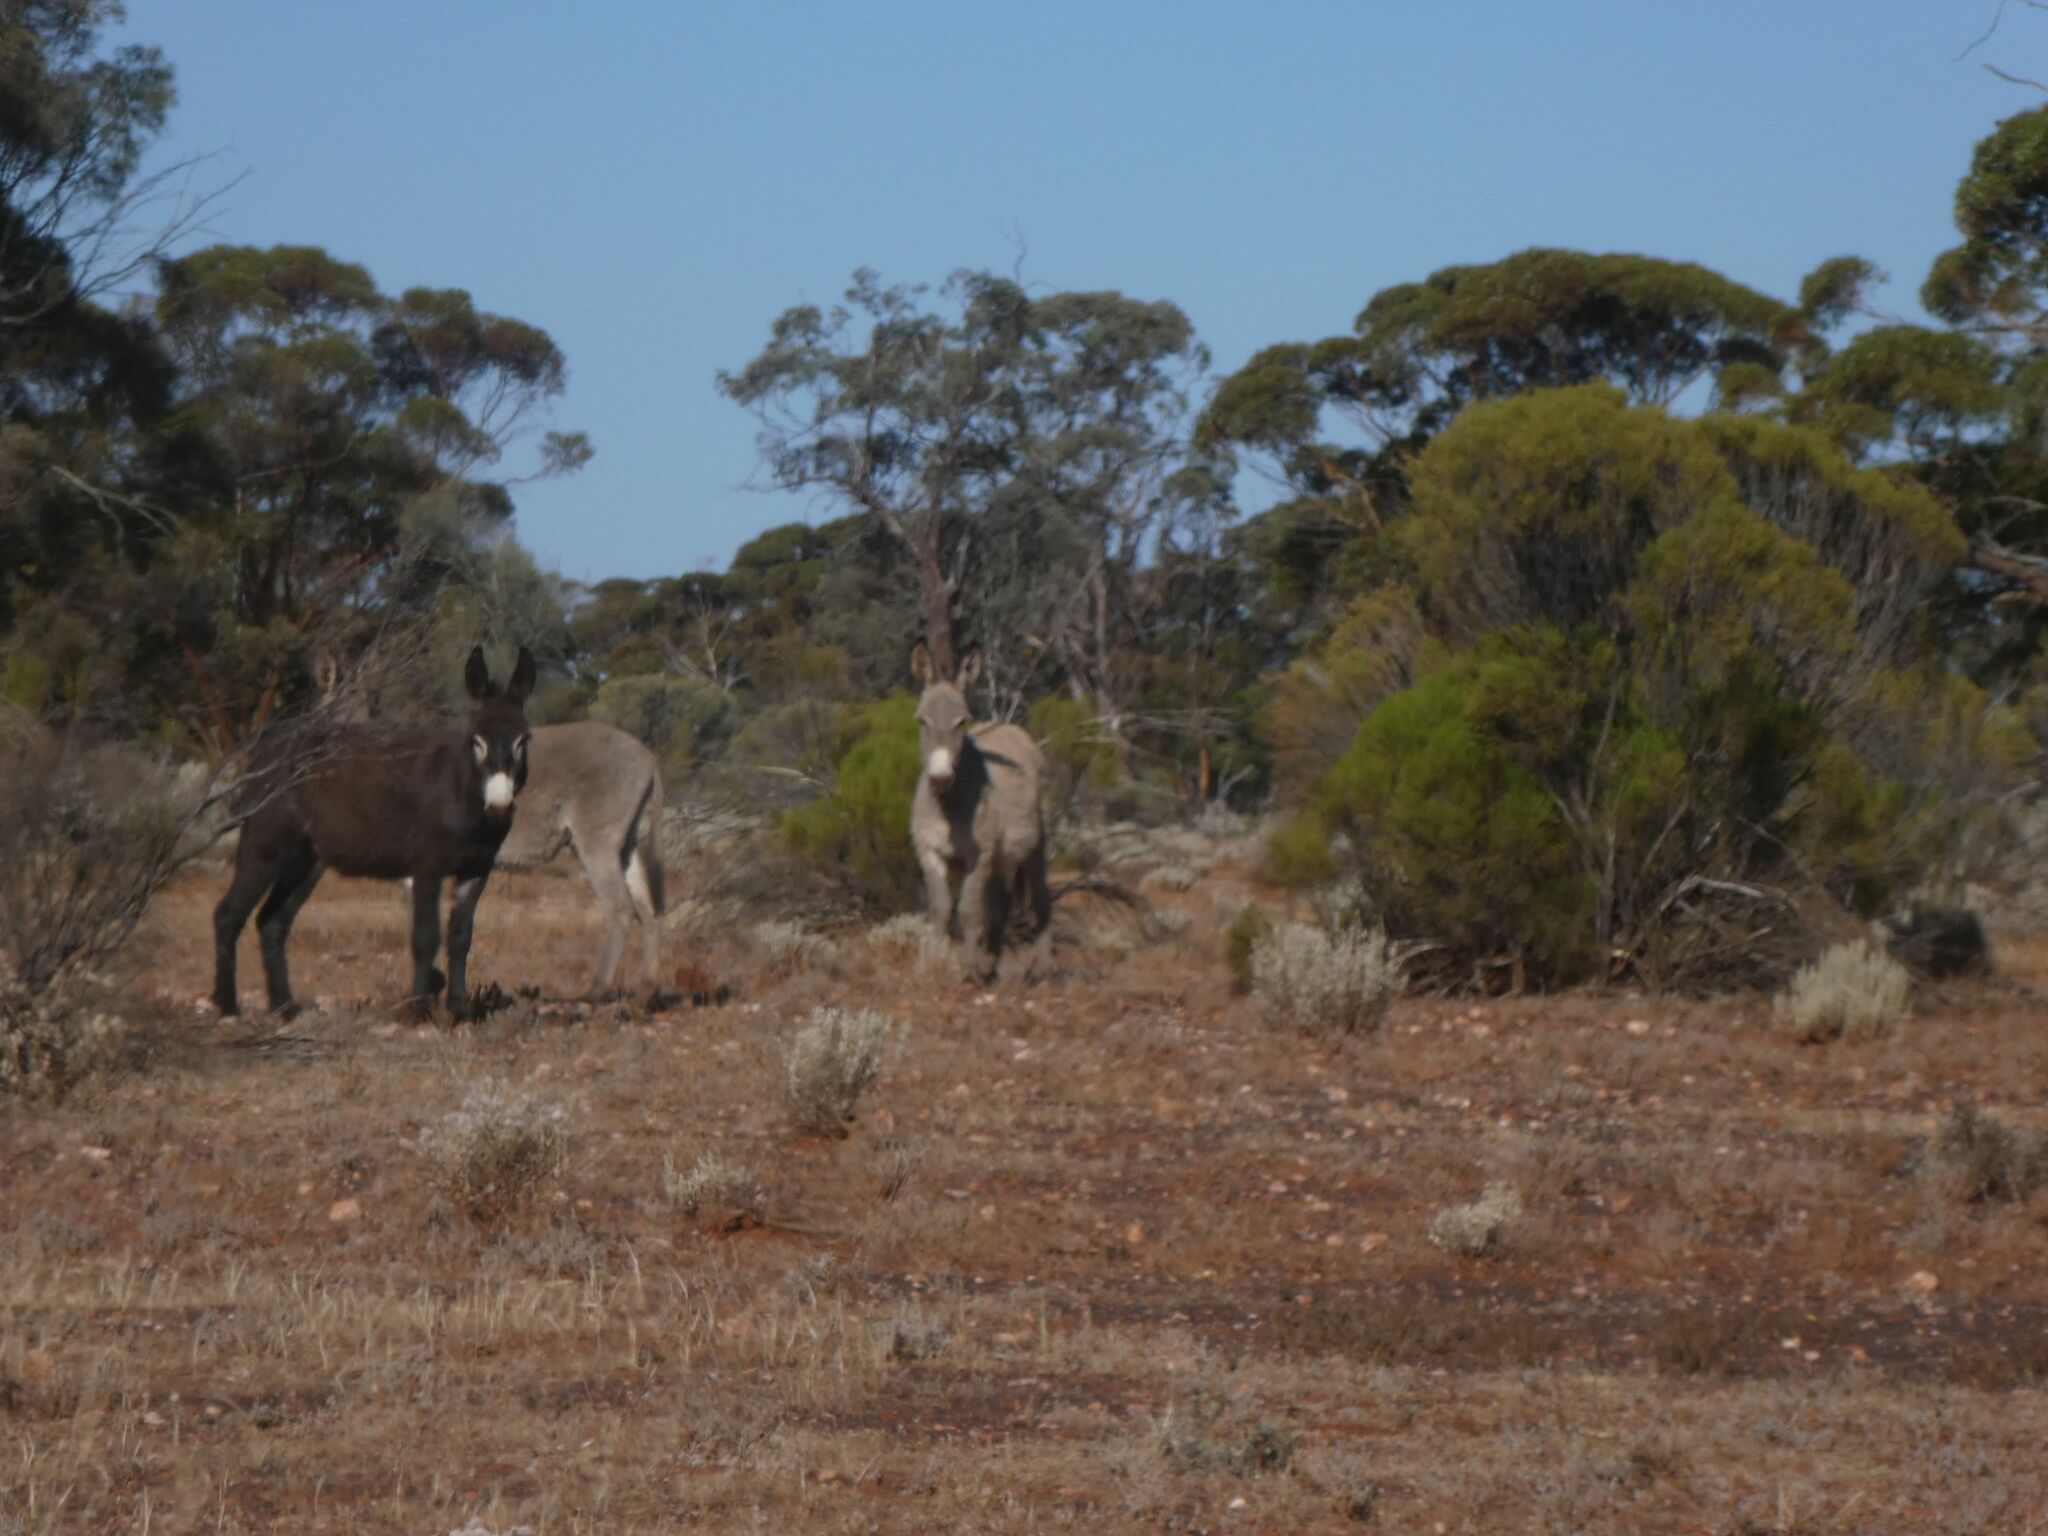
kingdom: Animalia
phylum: Chordata
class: Mammalia
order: Perissodactyla
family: Equidae
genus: Equus
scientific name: Equus asinus
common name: Ass
